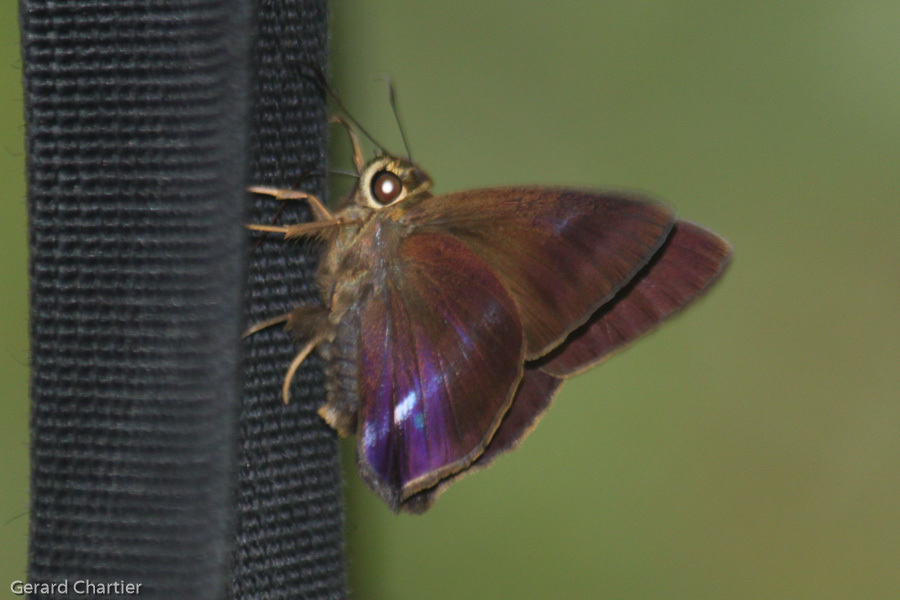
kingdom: Animalia
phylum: Arthropoda
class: Insecta
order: Lepidoptera
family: Hesperiidae
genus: Hasora
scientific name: Hasora leucospila
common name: Violet awl
